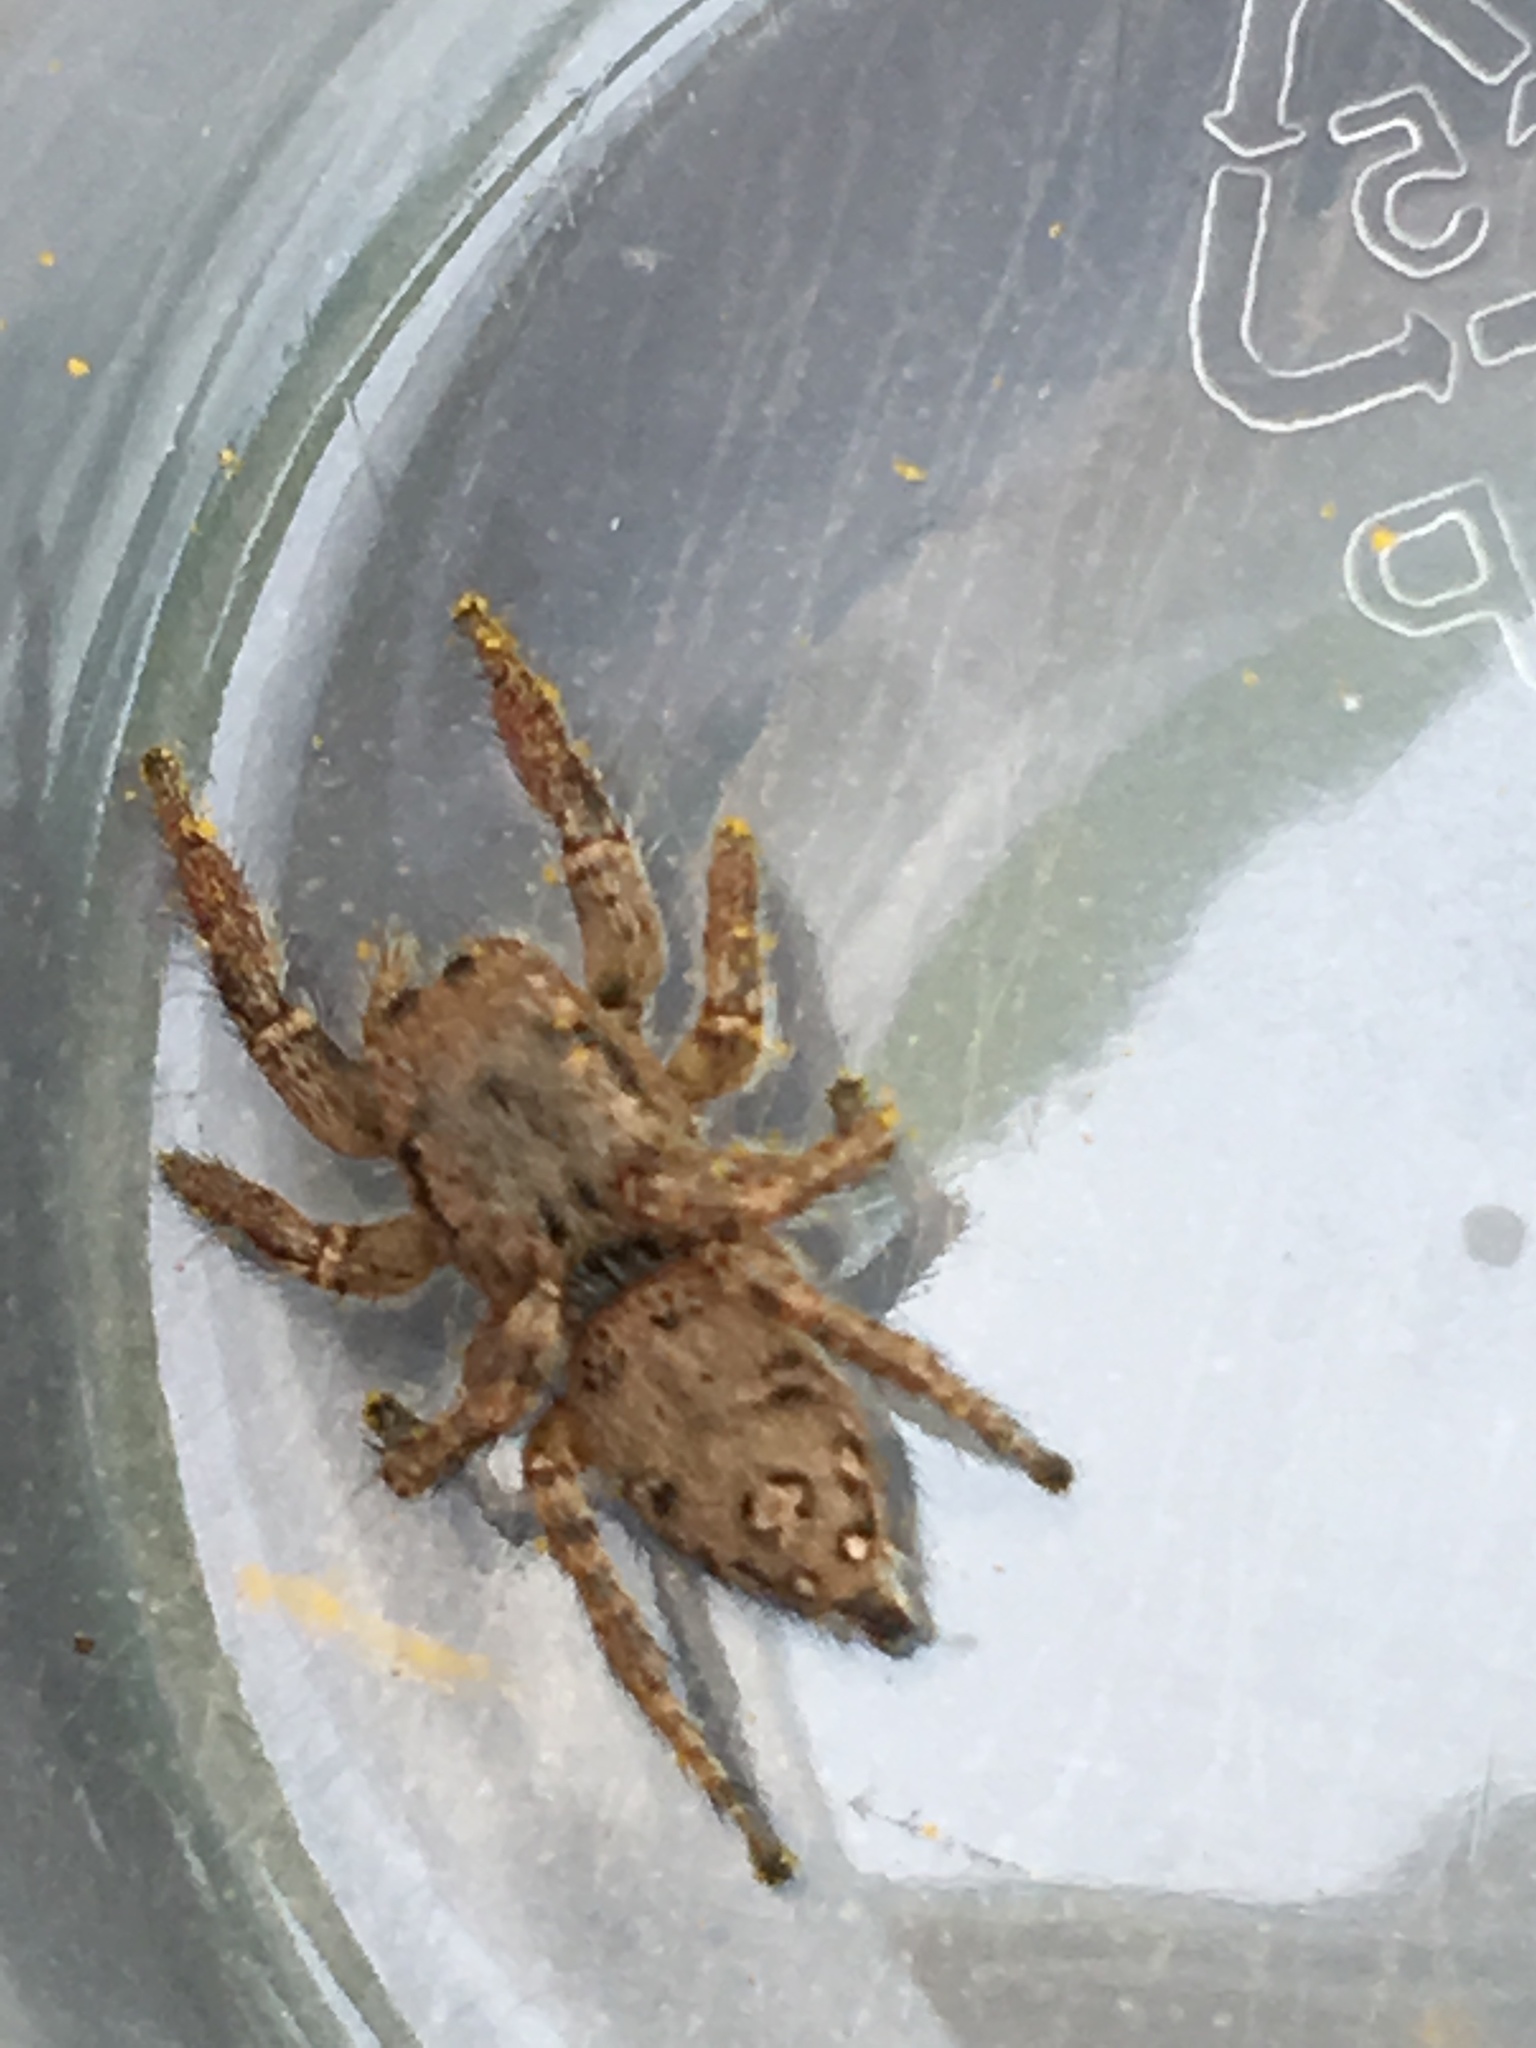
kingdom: Animalia
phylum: Arthropoda
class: Arachnida
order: Araneae
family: Salticidae
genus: Habronattus
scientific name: Habronattus coecatus
